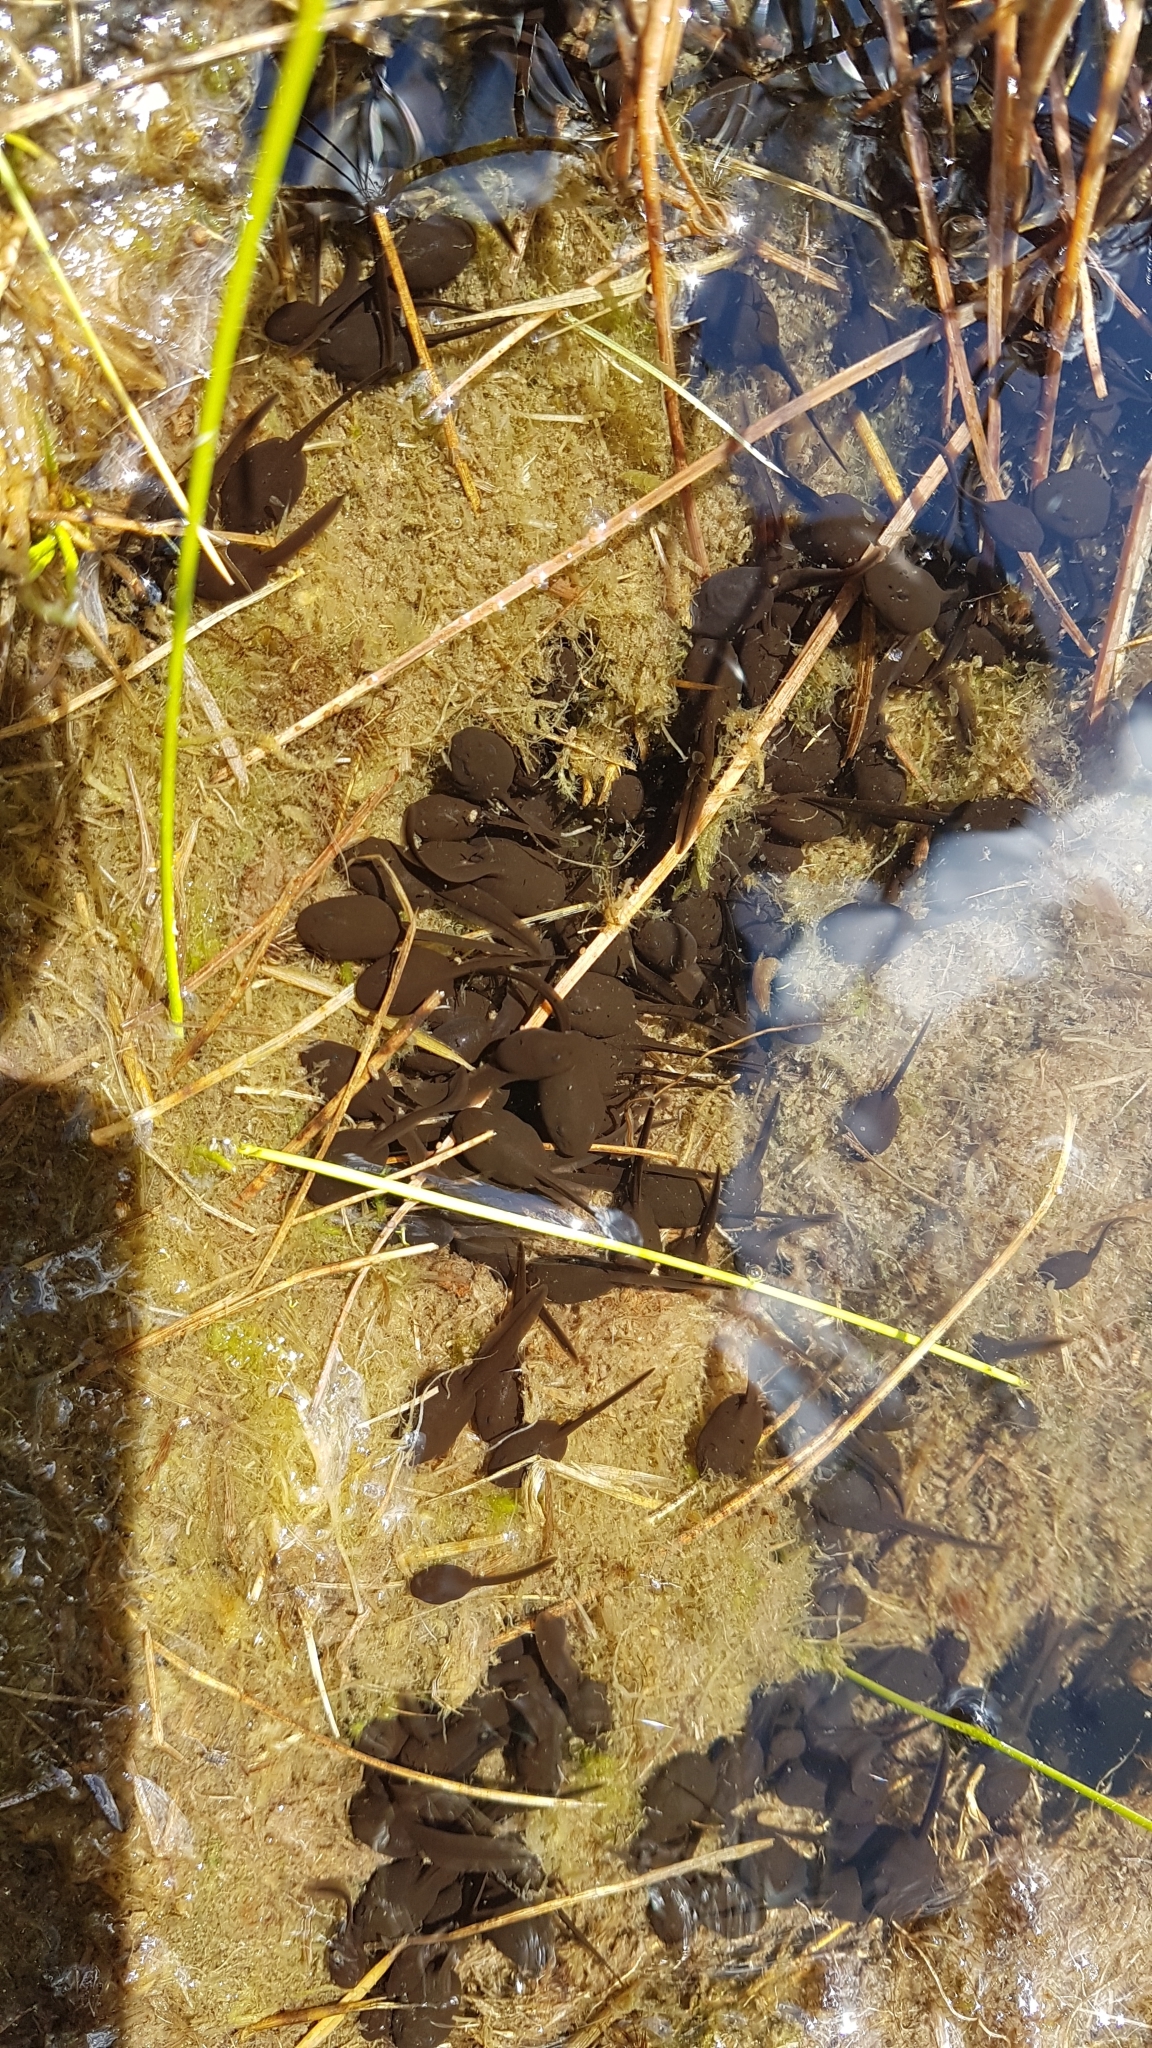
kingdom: Animalia
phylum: Chordata
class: Amphibia
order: Anura
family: Bufonidae
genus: Bufo
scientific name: Bufo bufo
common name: Common toad
